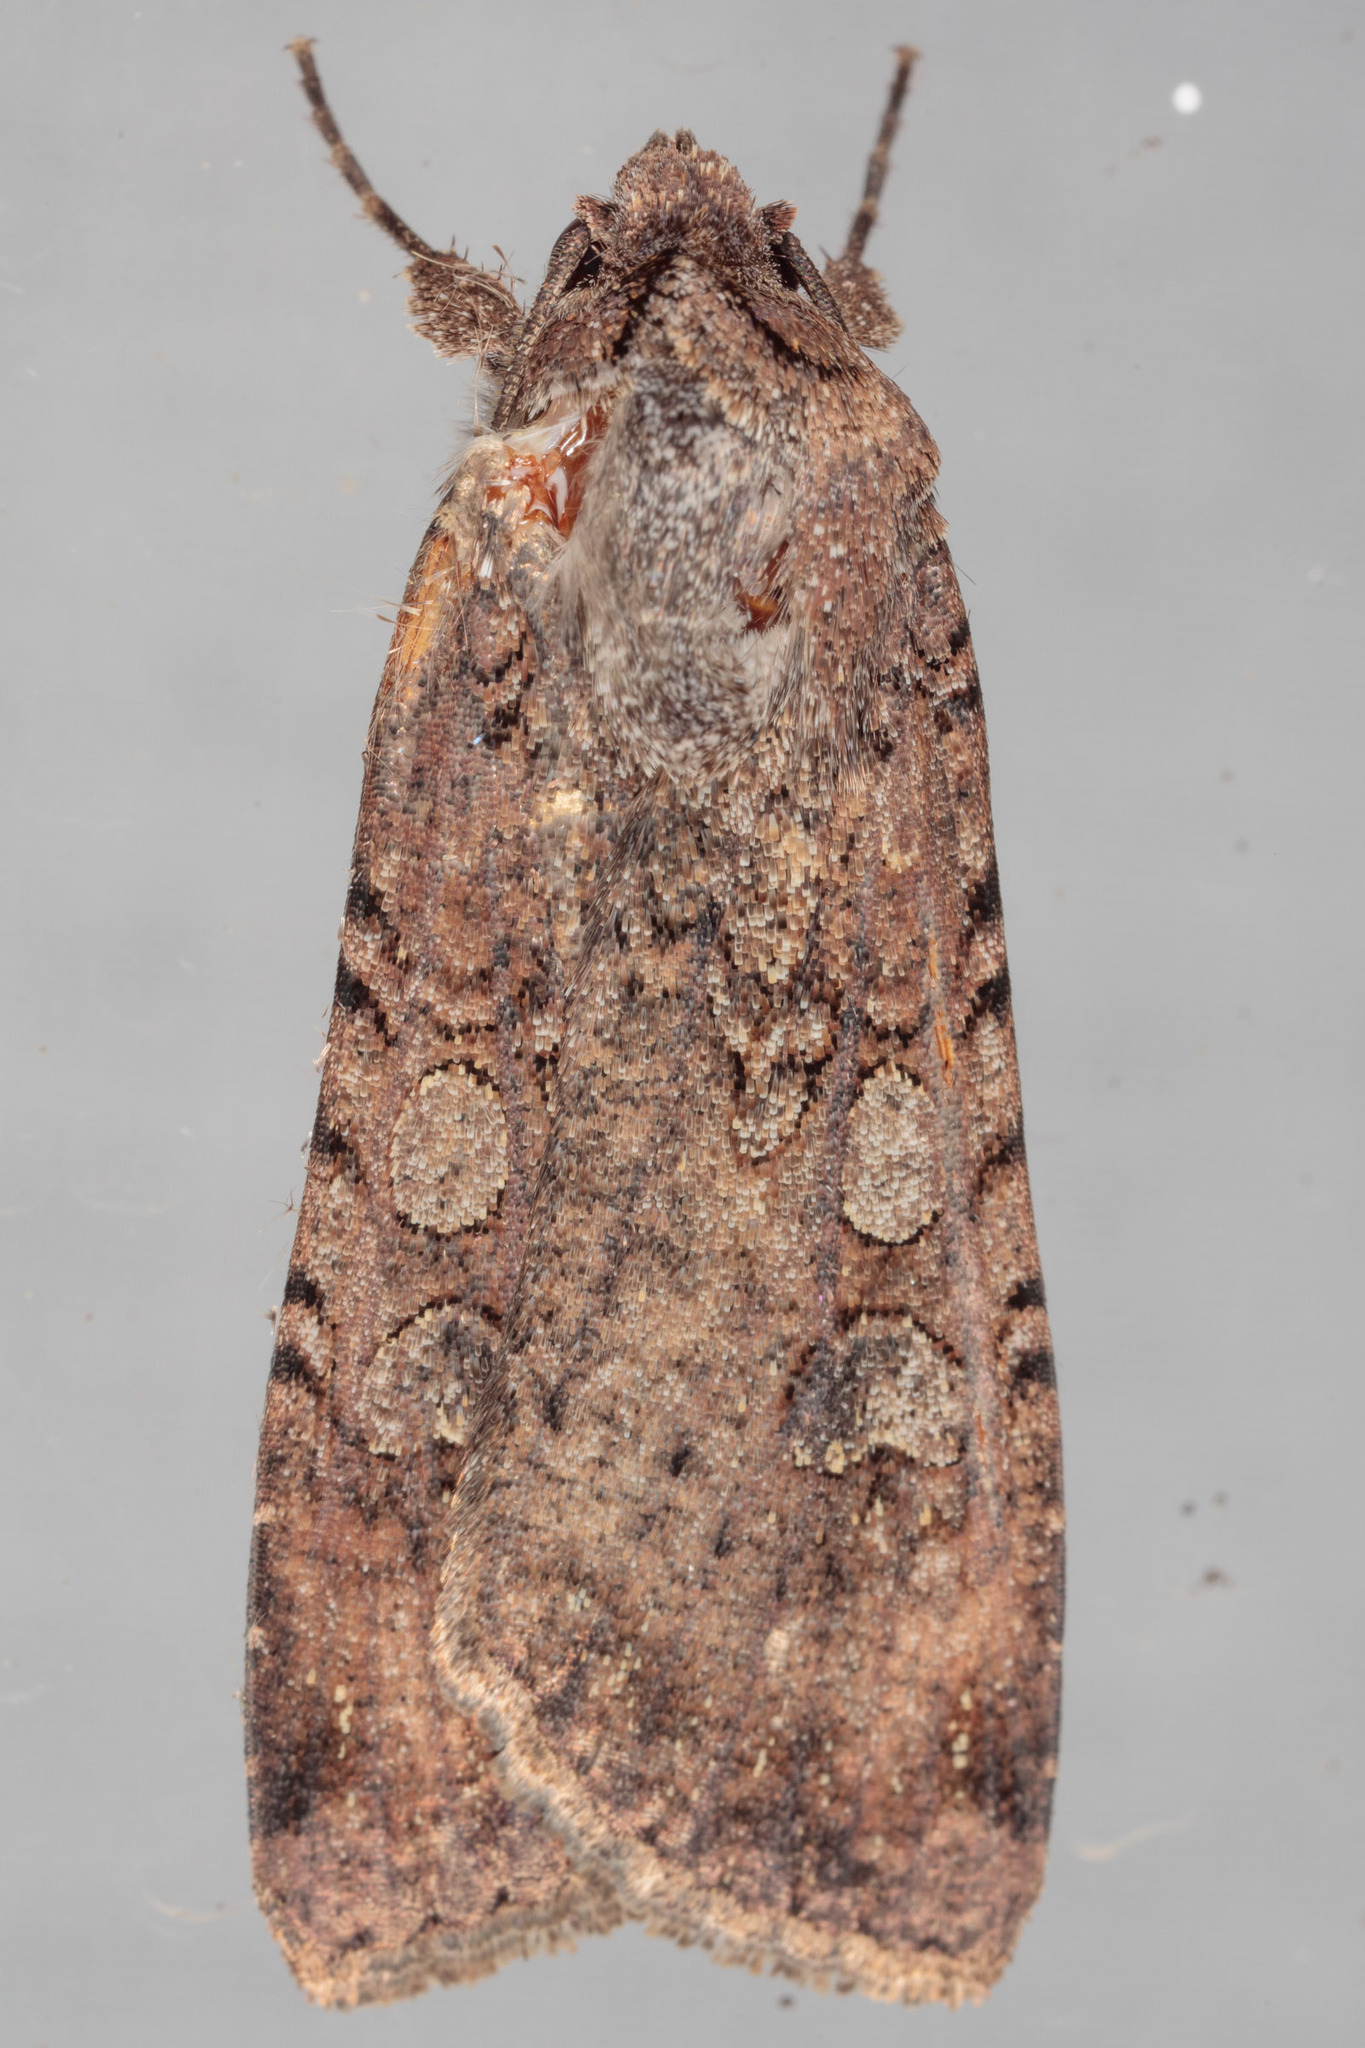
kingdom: Animalia
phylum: Arthropoda
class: Insecta
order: Lepidoptera
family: Noctuidae
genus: Peridroma
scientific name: Peridroma saucia
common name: Pearly underwing
